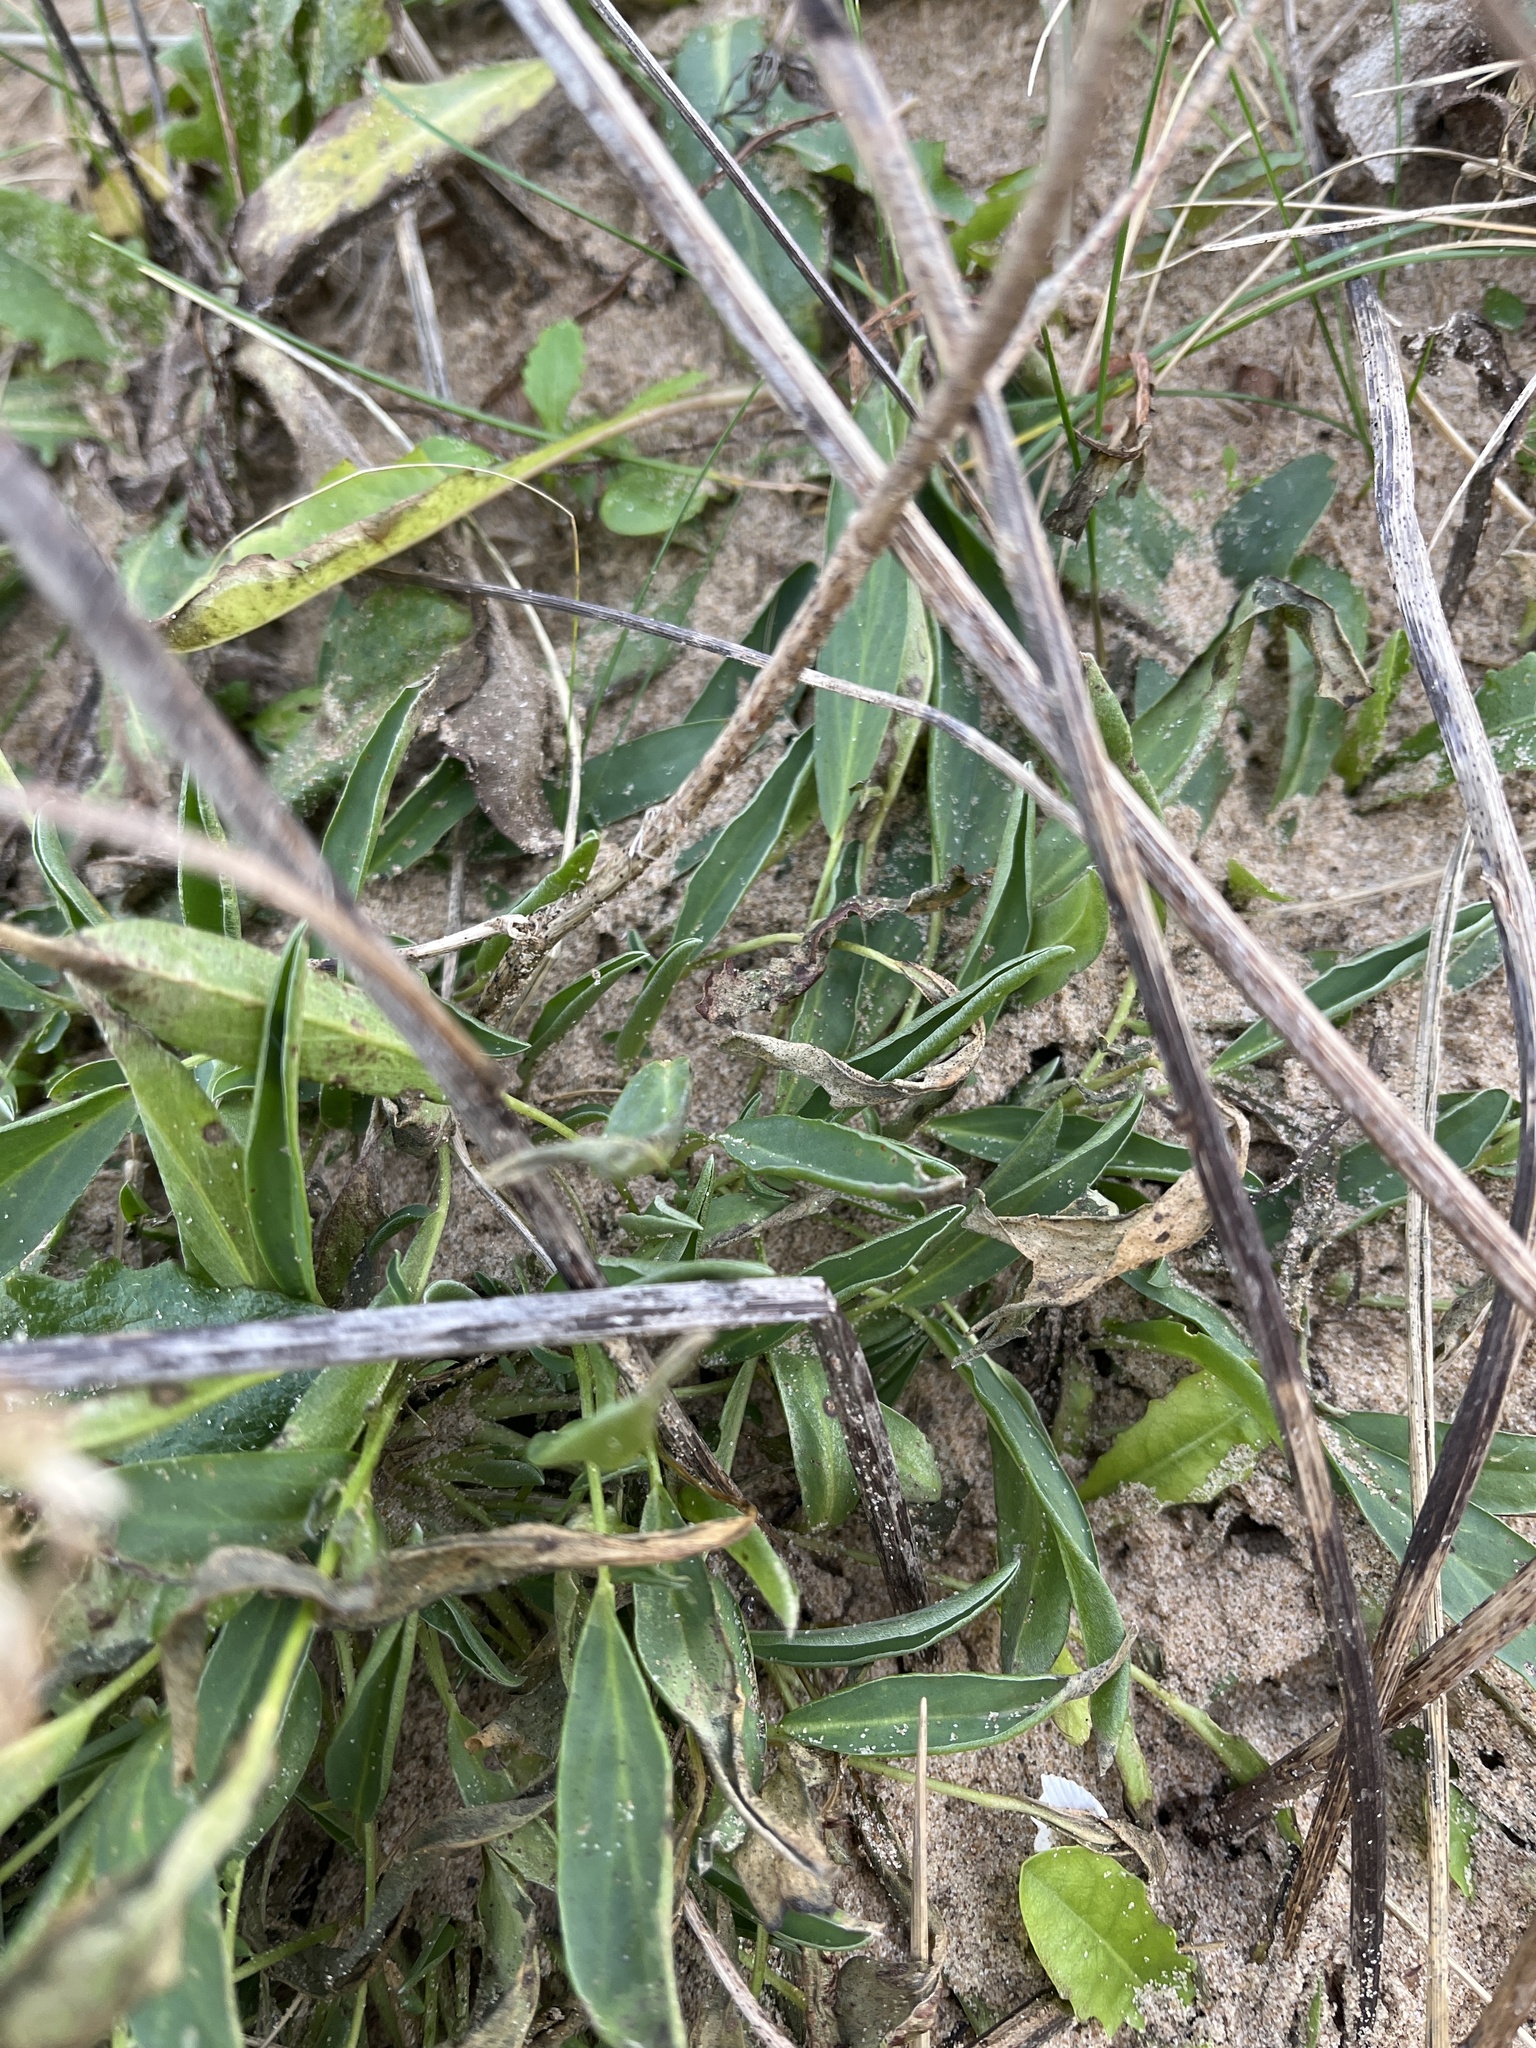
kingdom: Plantae
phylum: Tracheophyta
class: Magnoliopsida
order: Fabales
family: Fabaceae
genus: Anthyllis
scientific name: Anthyllis vulneraria
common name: Kidney vetch
